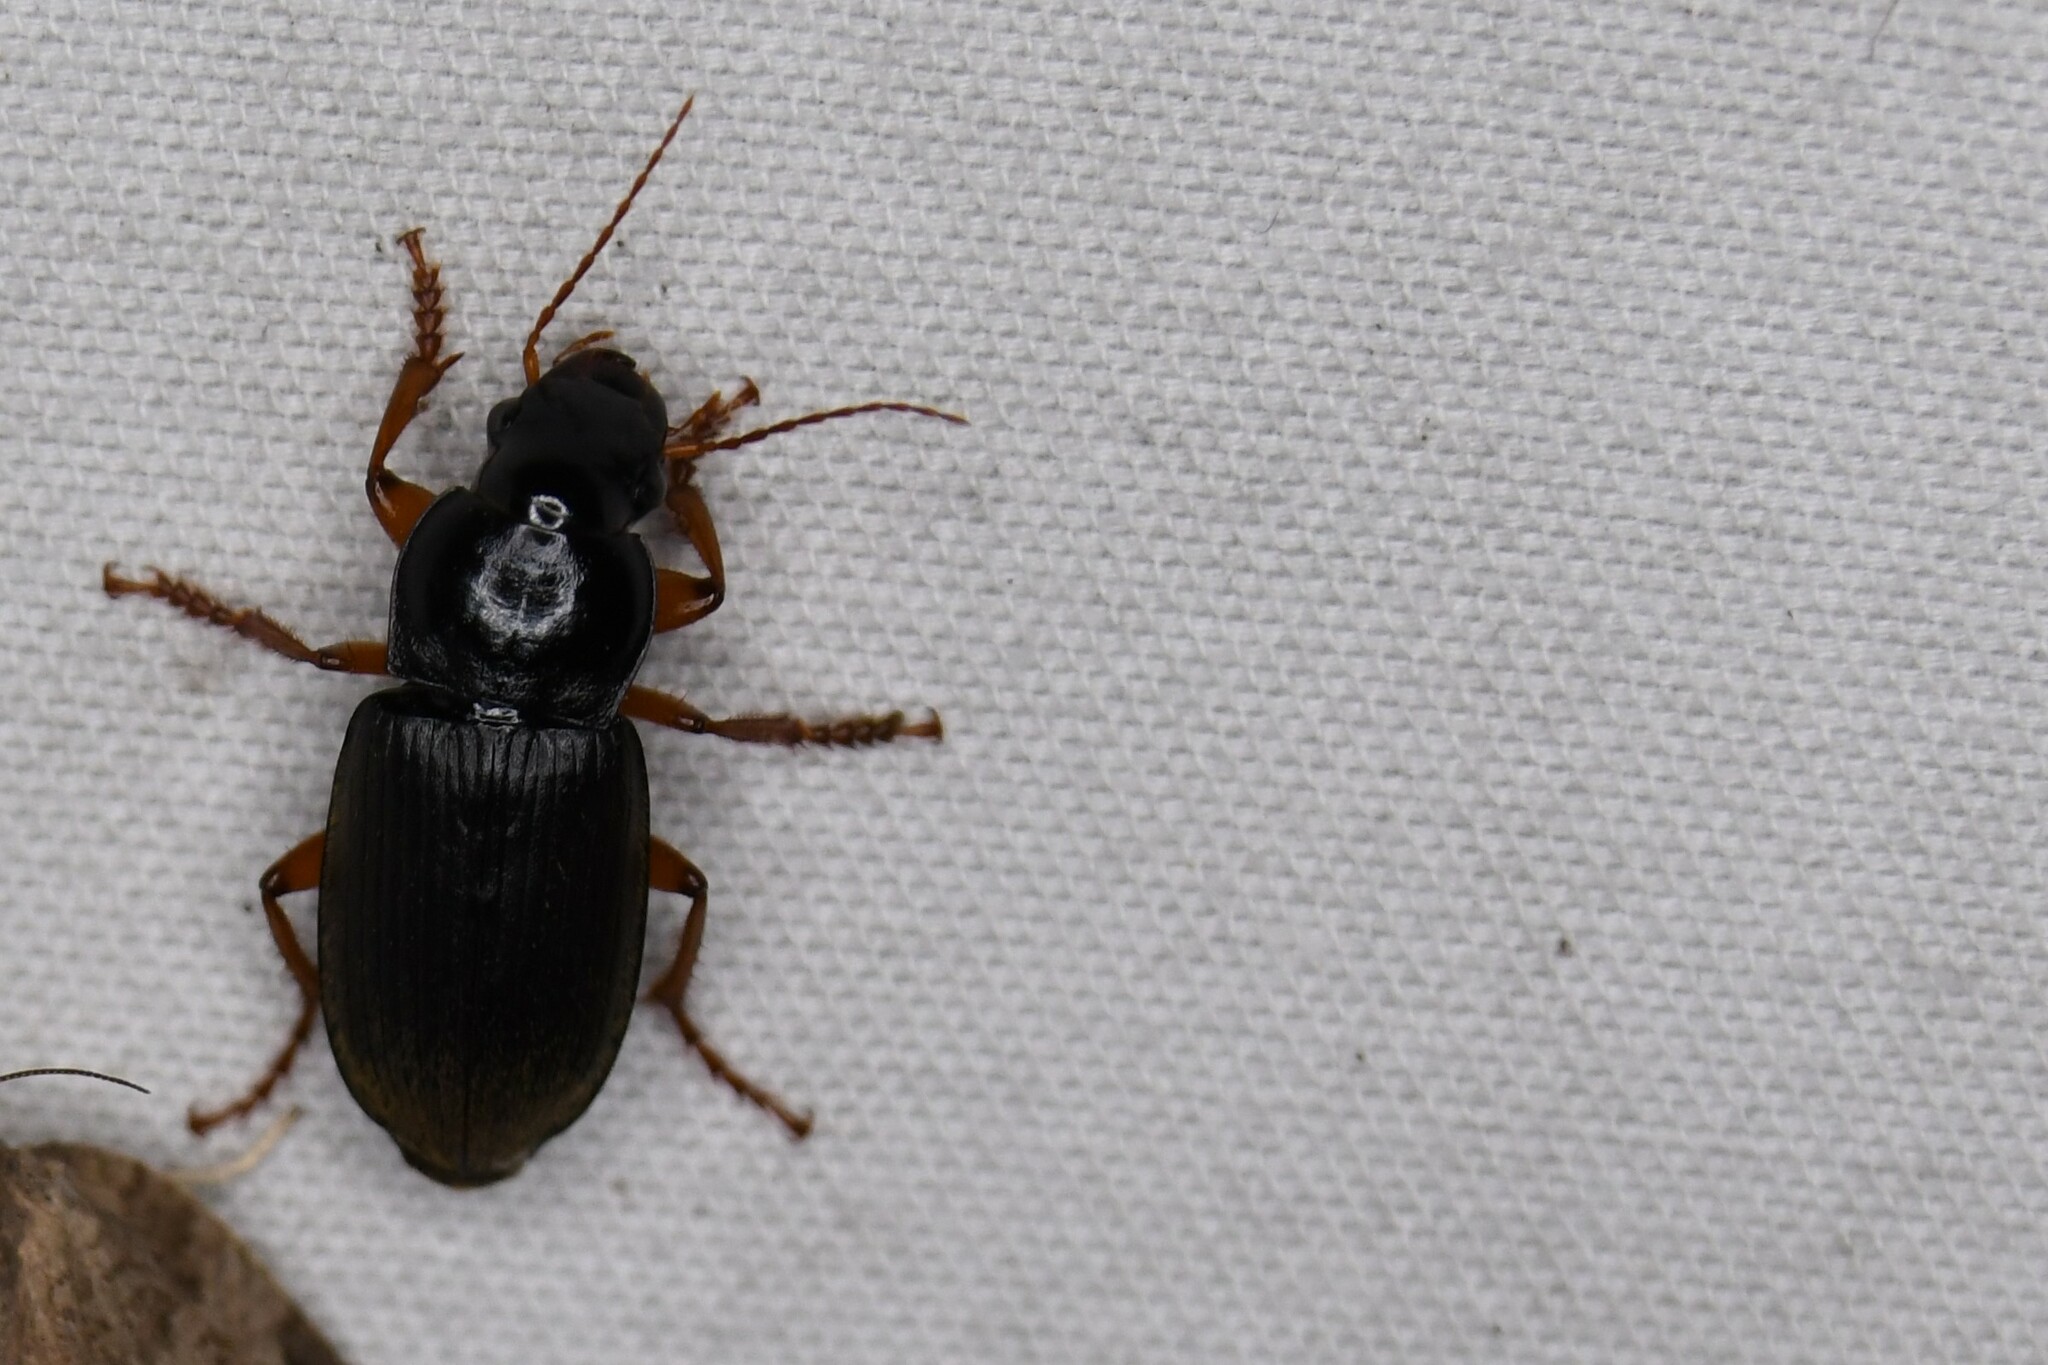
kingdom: Animalia
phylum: Arthropoda
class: Insecta
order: Coleoptera
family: Carabidae
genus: Harpalus
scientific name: Harpalus rufipes
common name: Strawberry harp ground beetle
